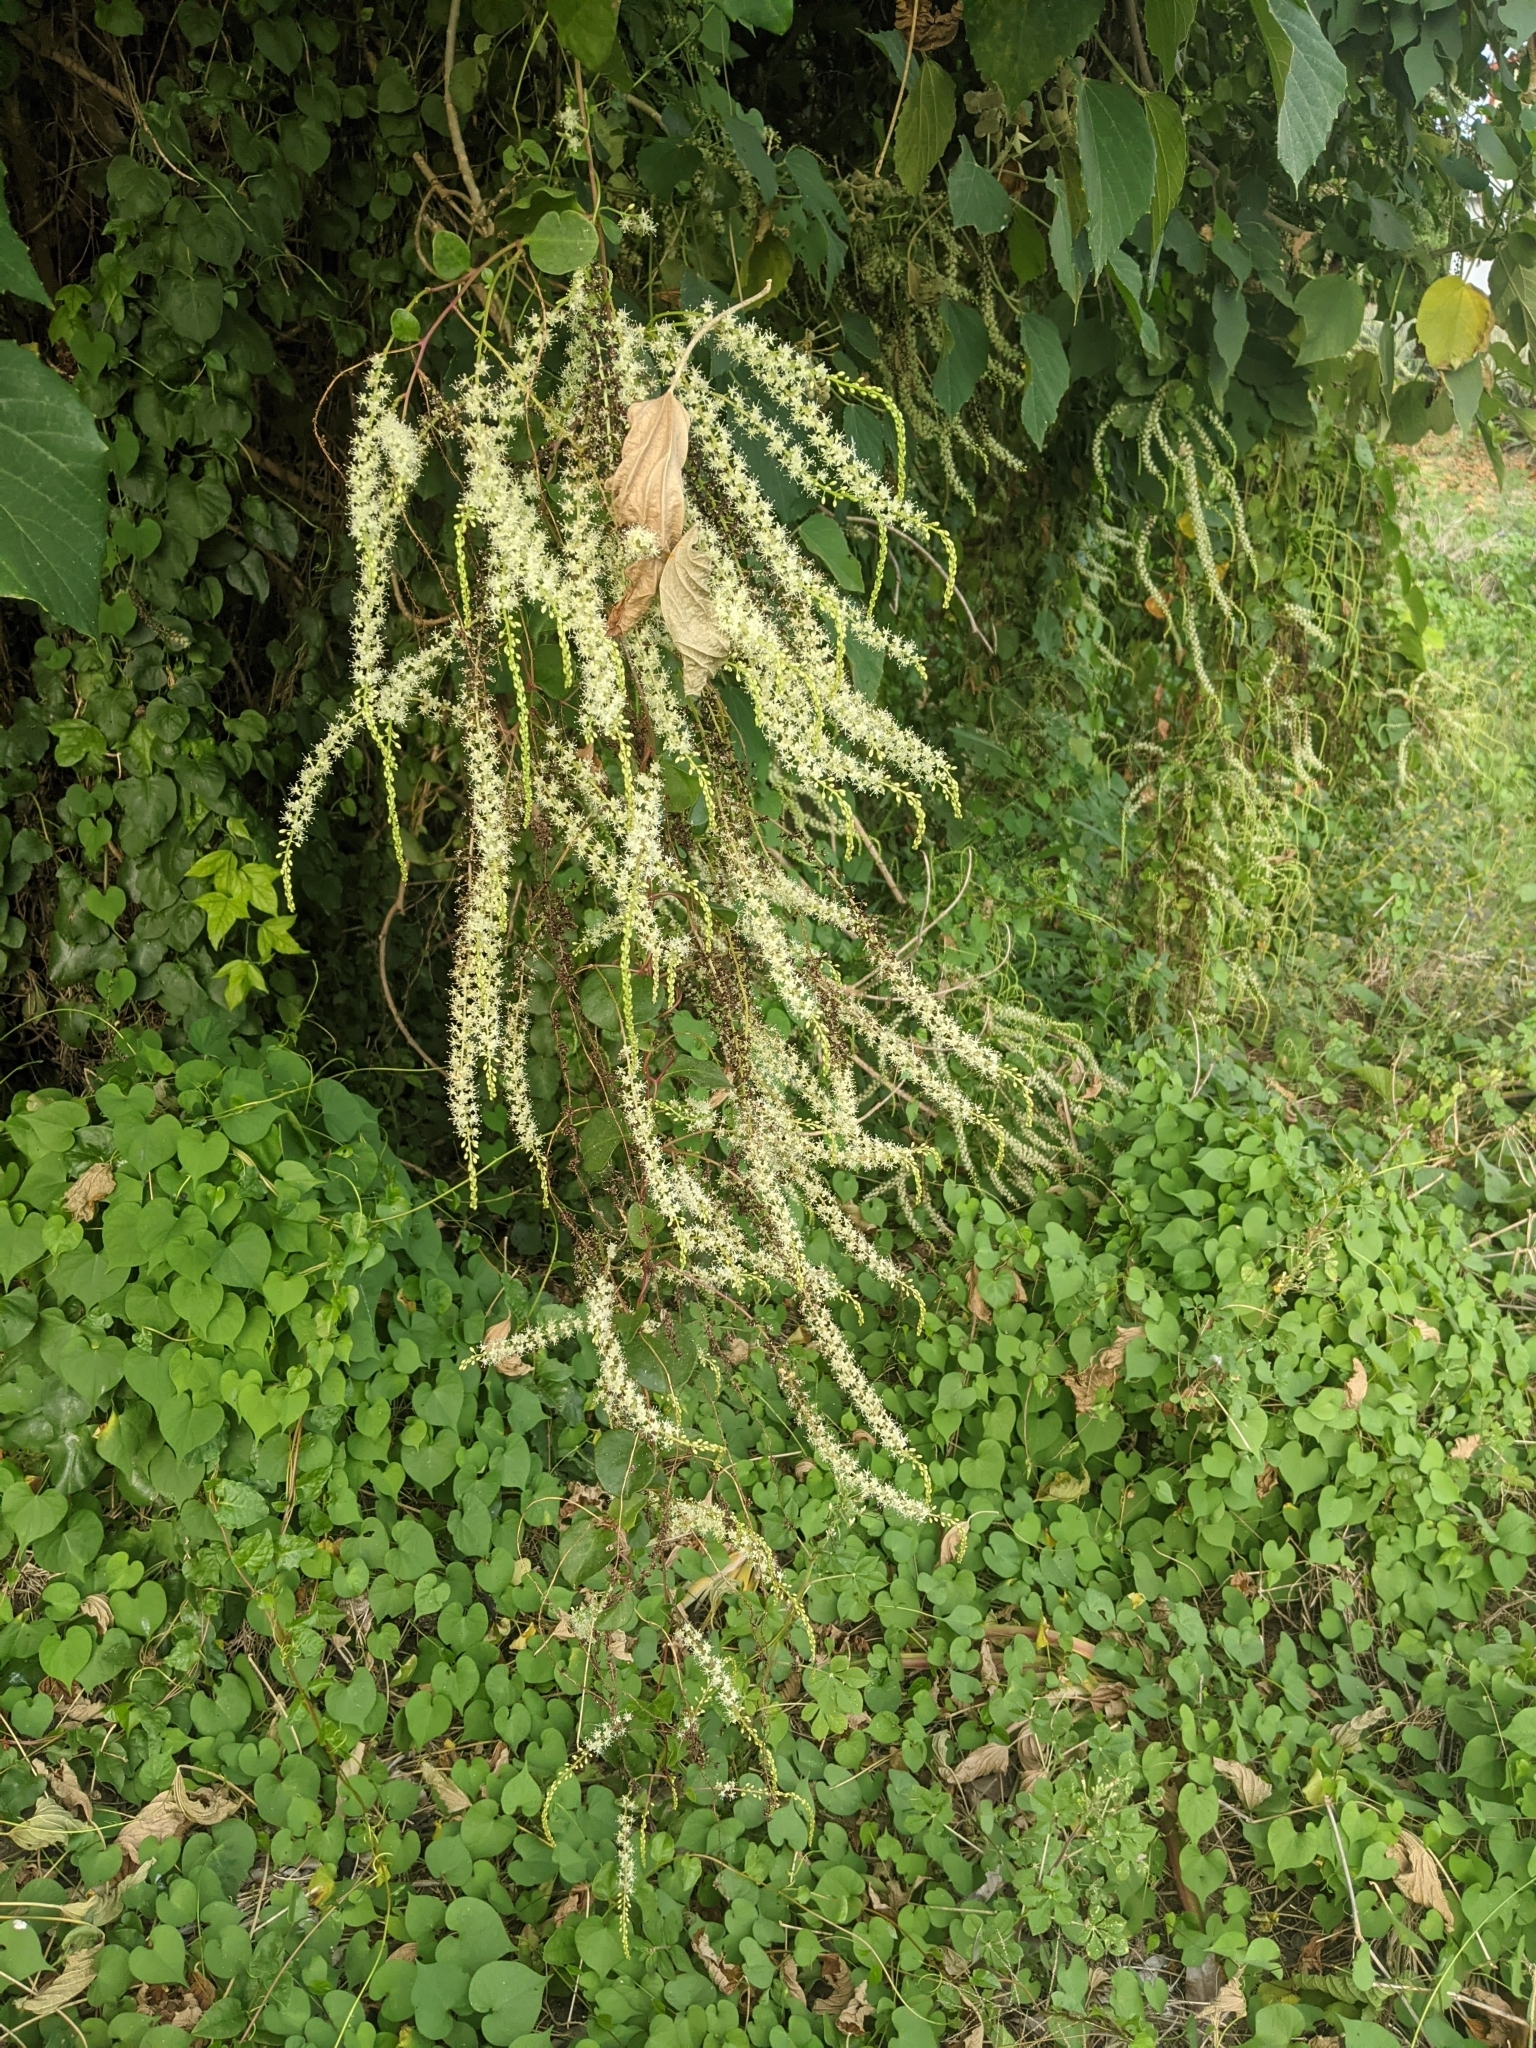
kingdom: Plantae
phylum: Tracheophyta
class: Magnoliopsida
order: Caryophyllales
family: Basellaceae
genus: Anredera
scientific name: Anredera cordifolia
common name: Heartleaf madeiravine
